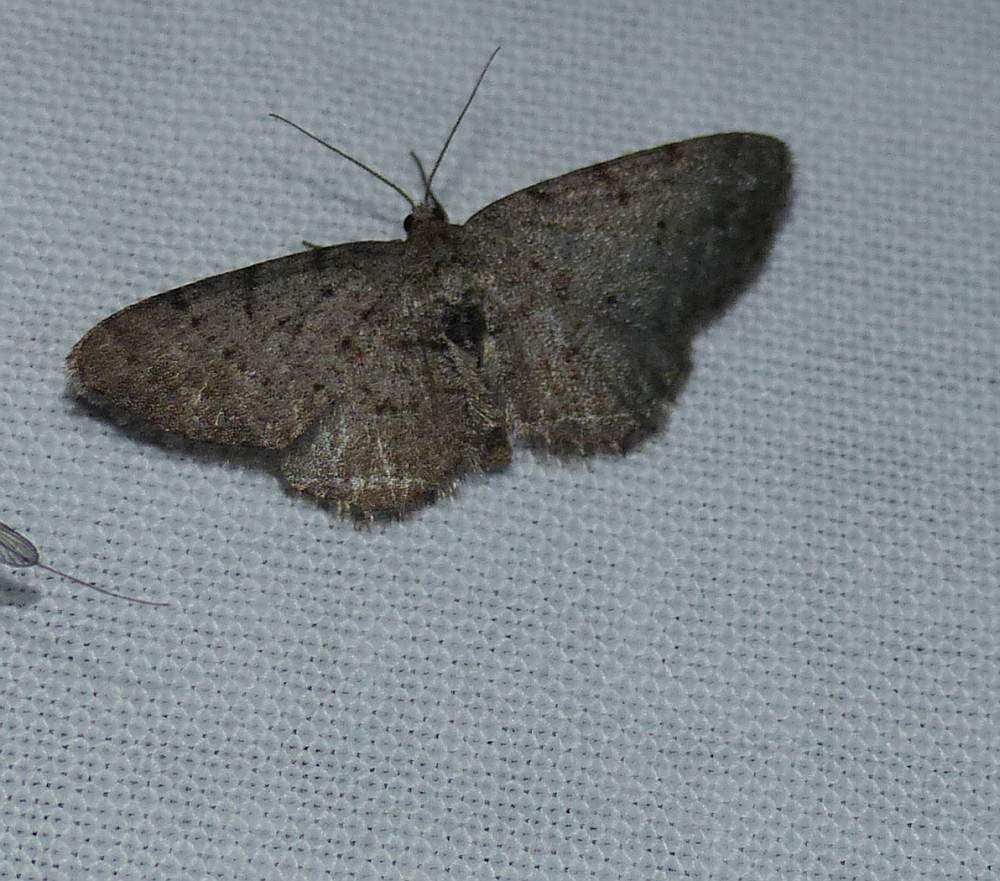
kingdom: Animalia
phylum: Arthropoda
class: Insecta
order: Lepidoptera
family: Geometridae
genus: Aethalura
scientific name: Aethalura intertexta
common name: Four-barred gray
